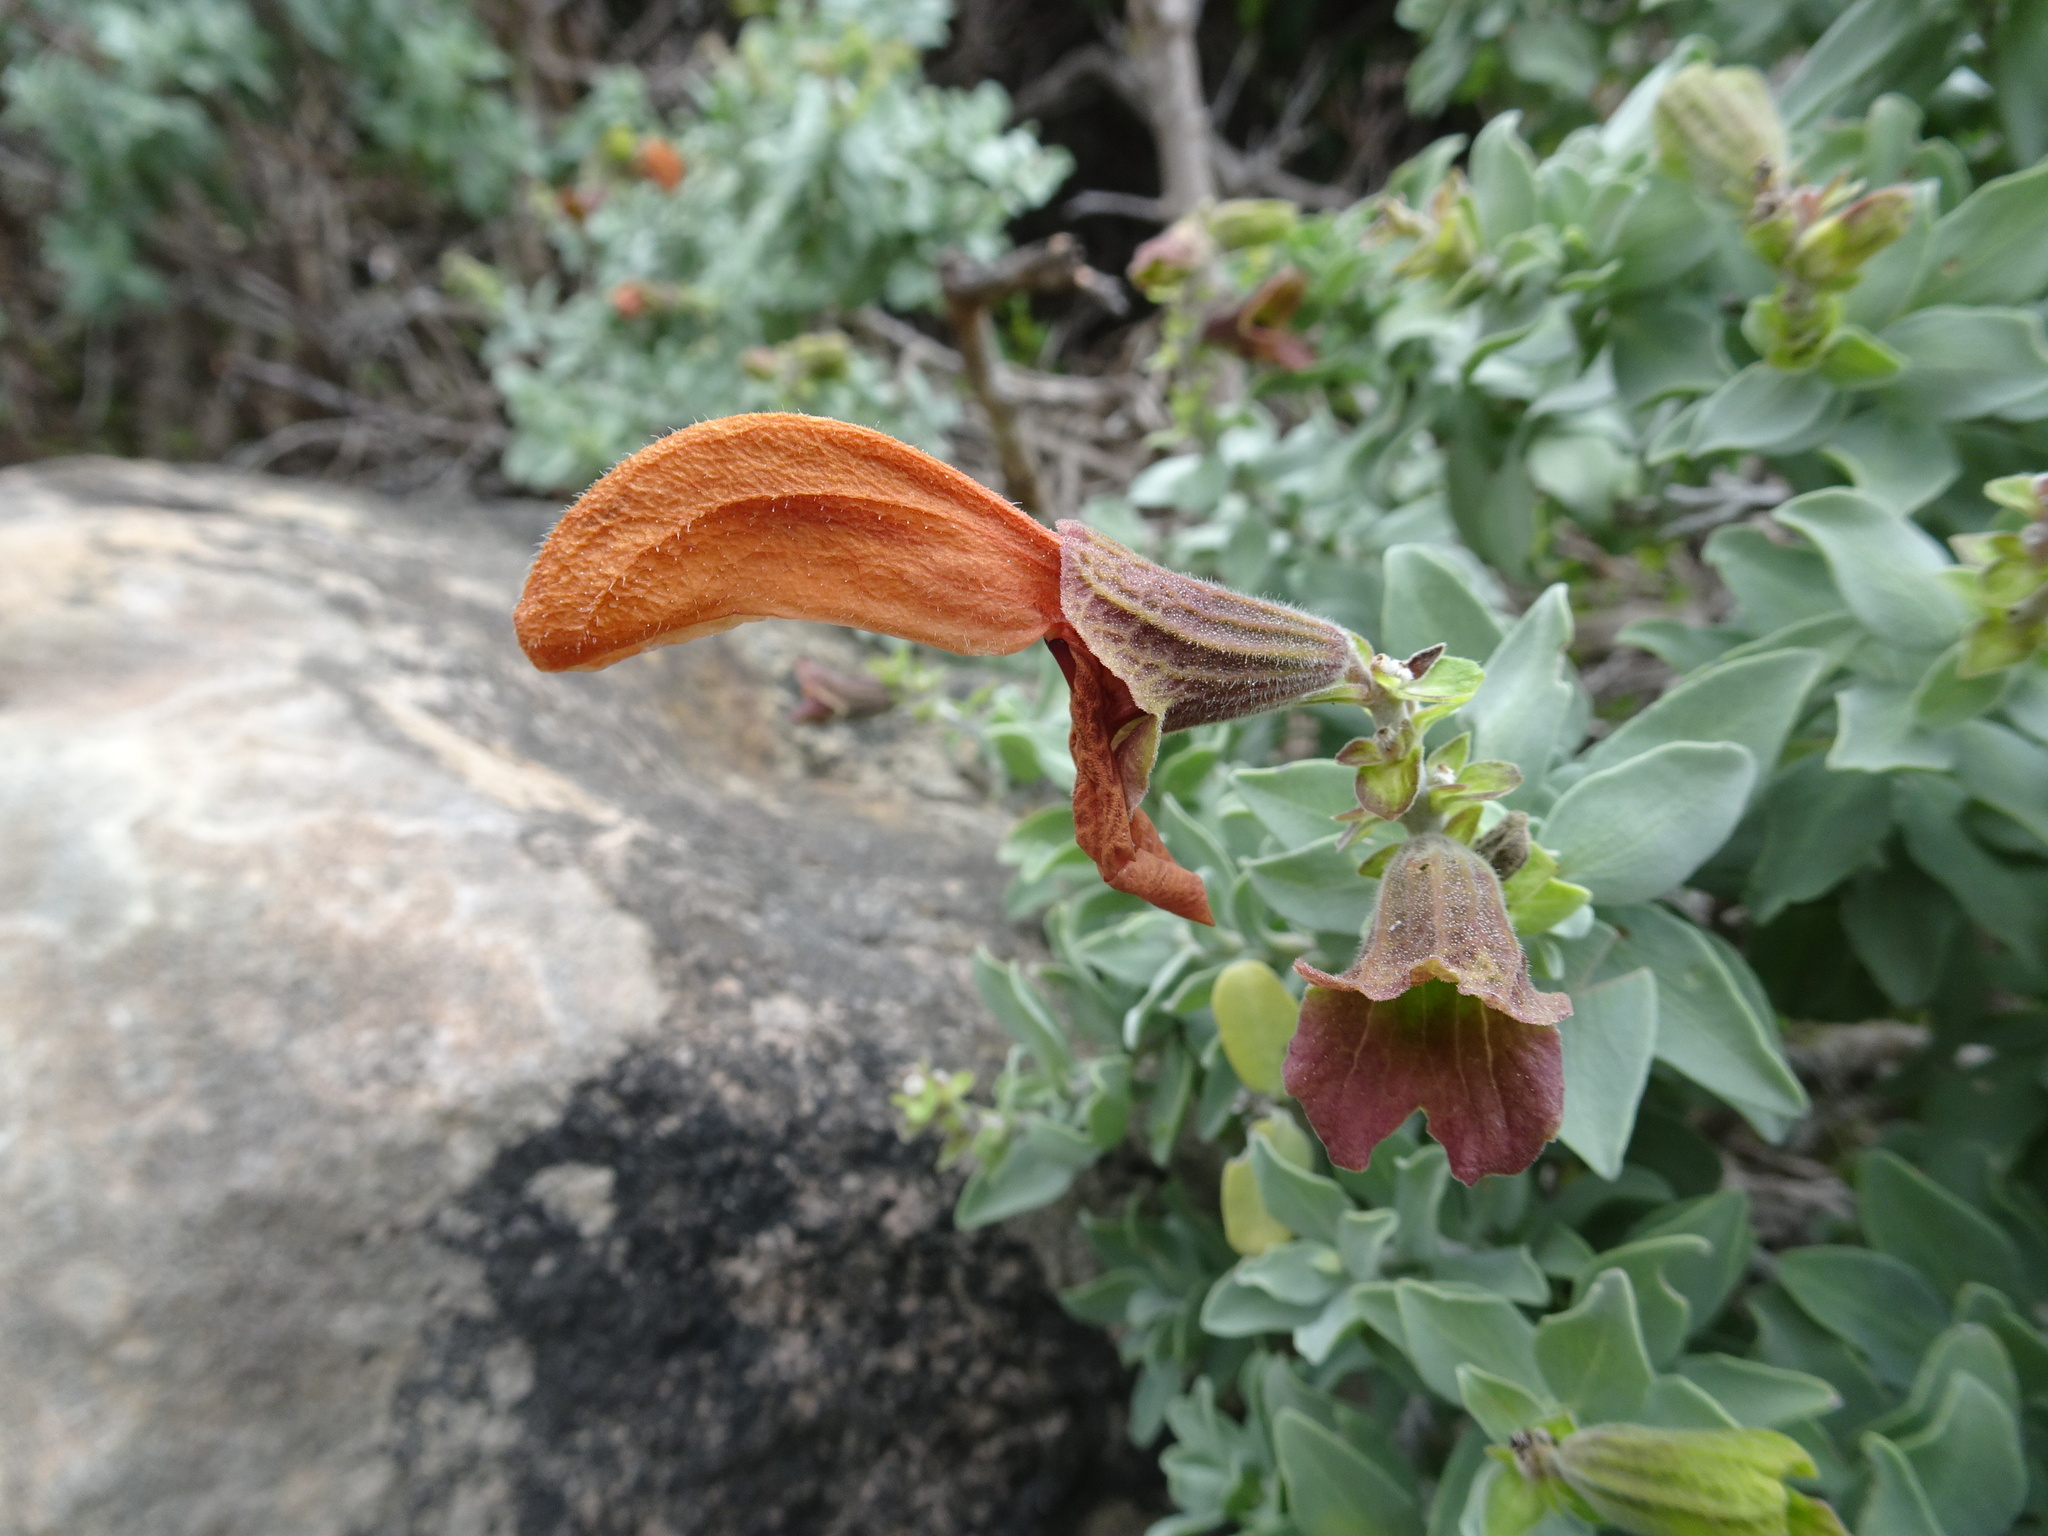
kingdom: Plantae
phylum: Tracheophyta
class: Magnoliopsida
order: Lamiales
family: Lamiaceae
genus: Salvia
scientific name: Salvia aurea
